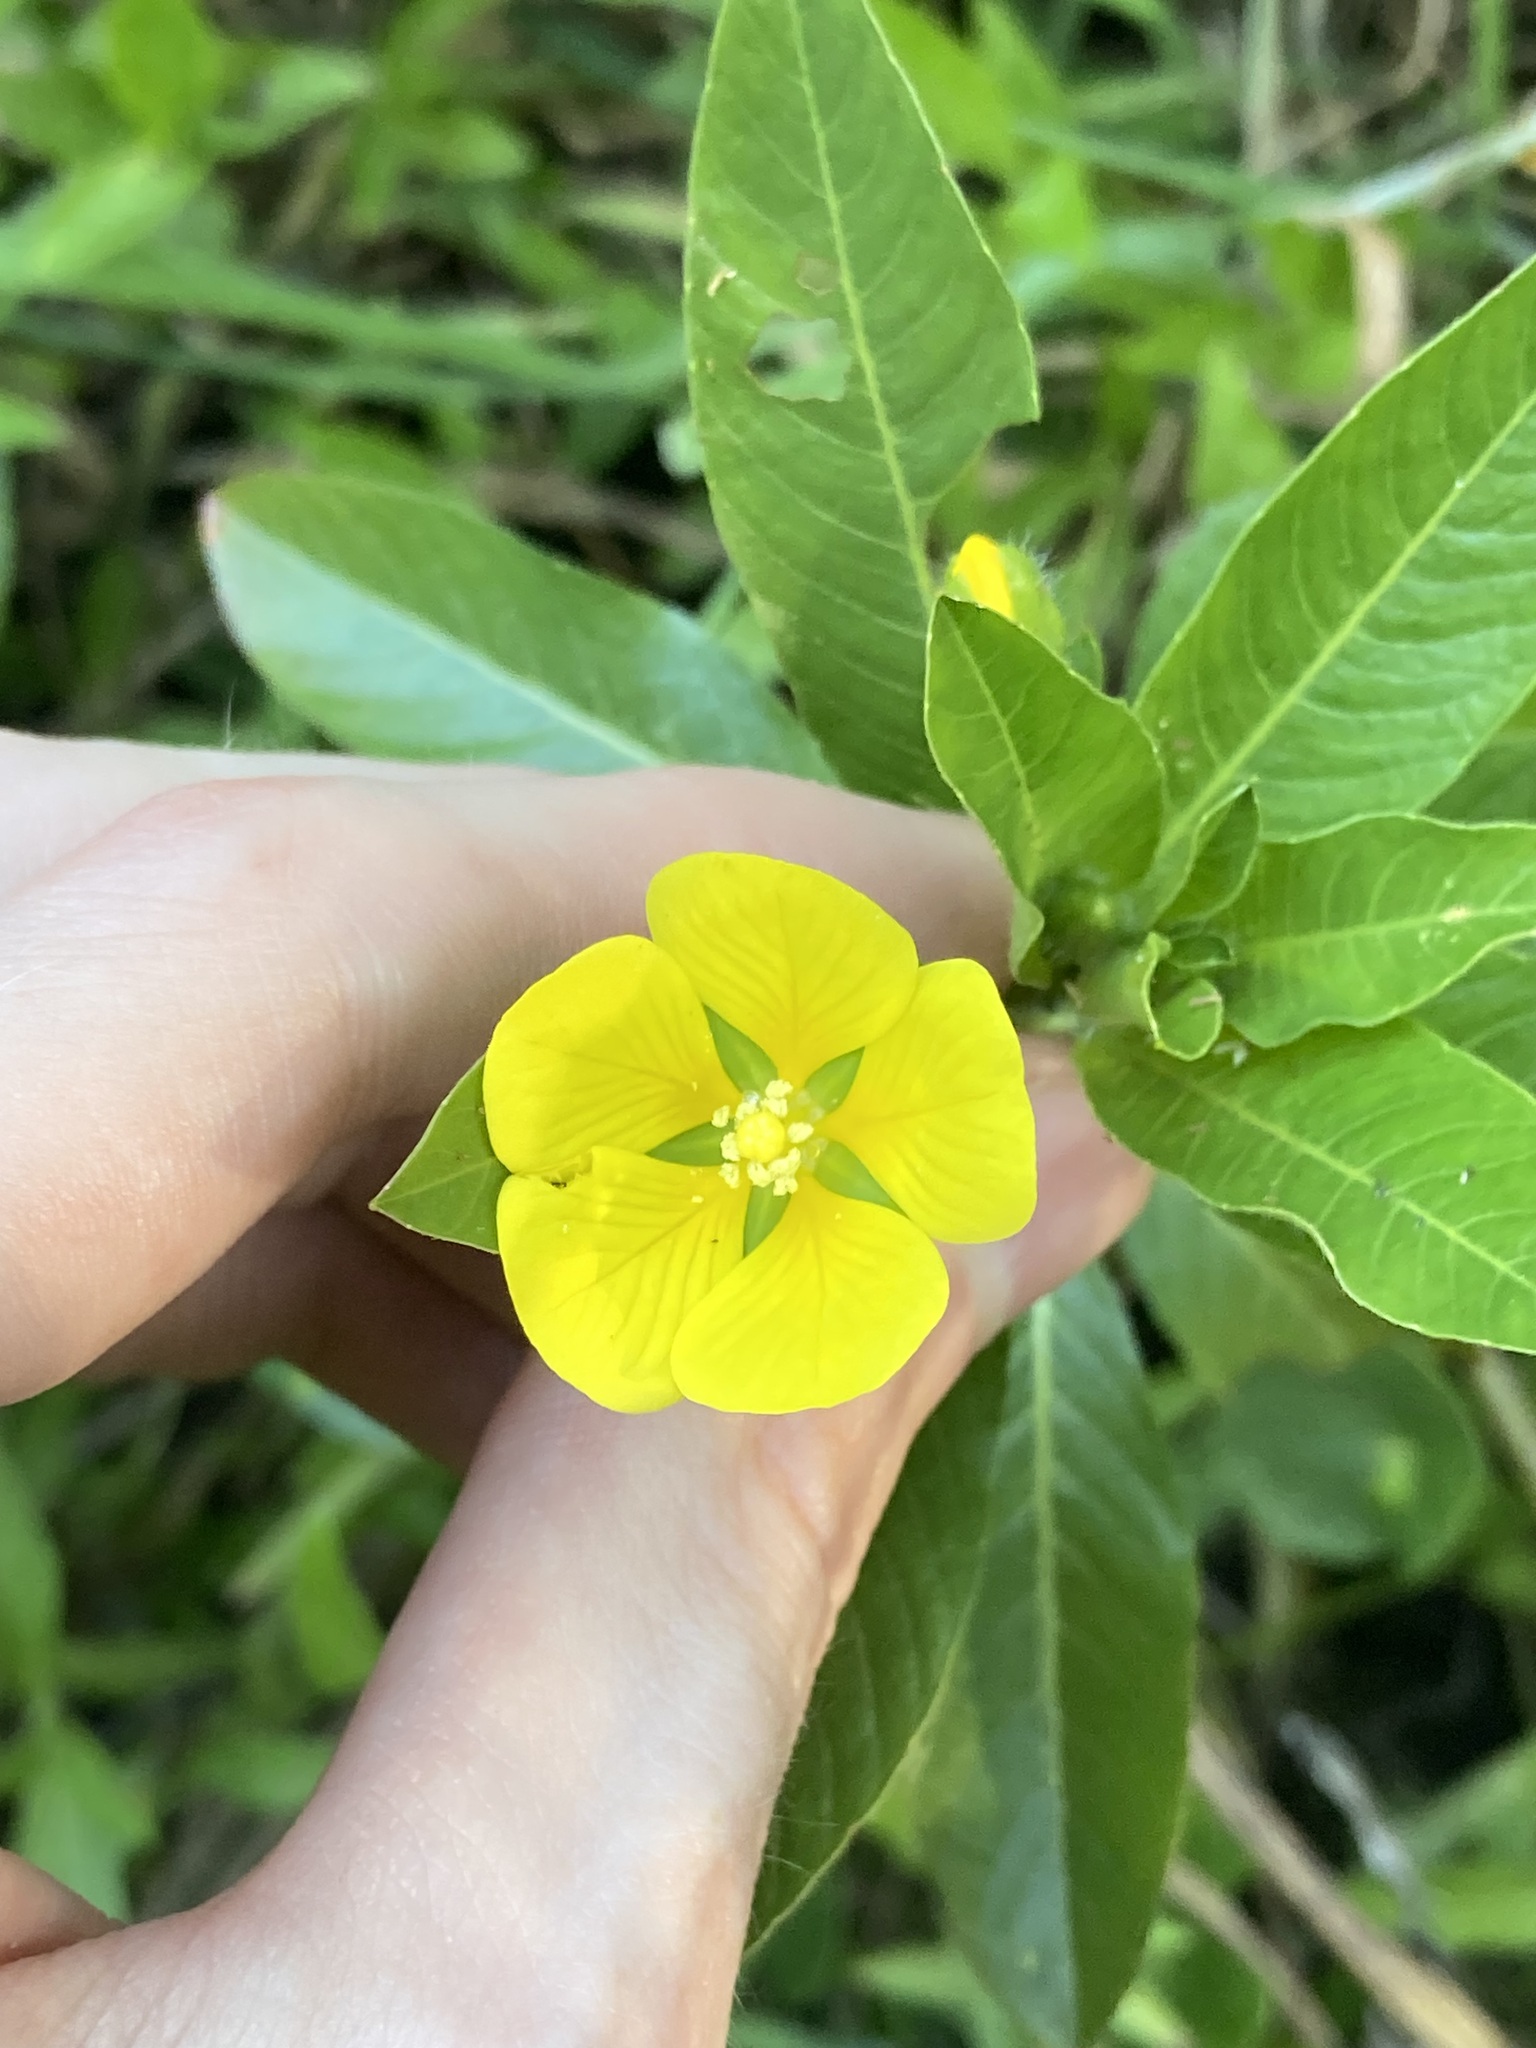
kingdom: Plantae
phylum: Tracheophyta
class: Magnoliopsida
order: Myrtales
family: Onagraceae
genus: Ludwigia
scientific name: Ludwigia peploides
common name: Floating primrose-willow
